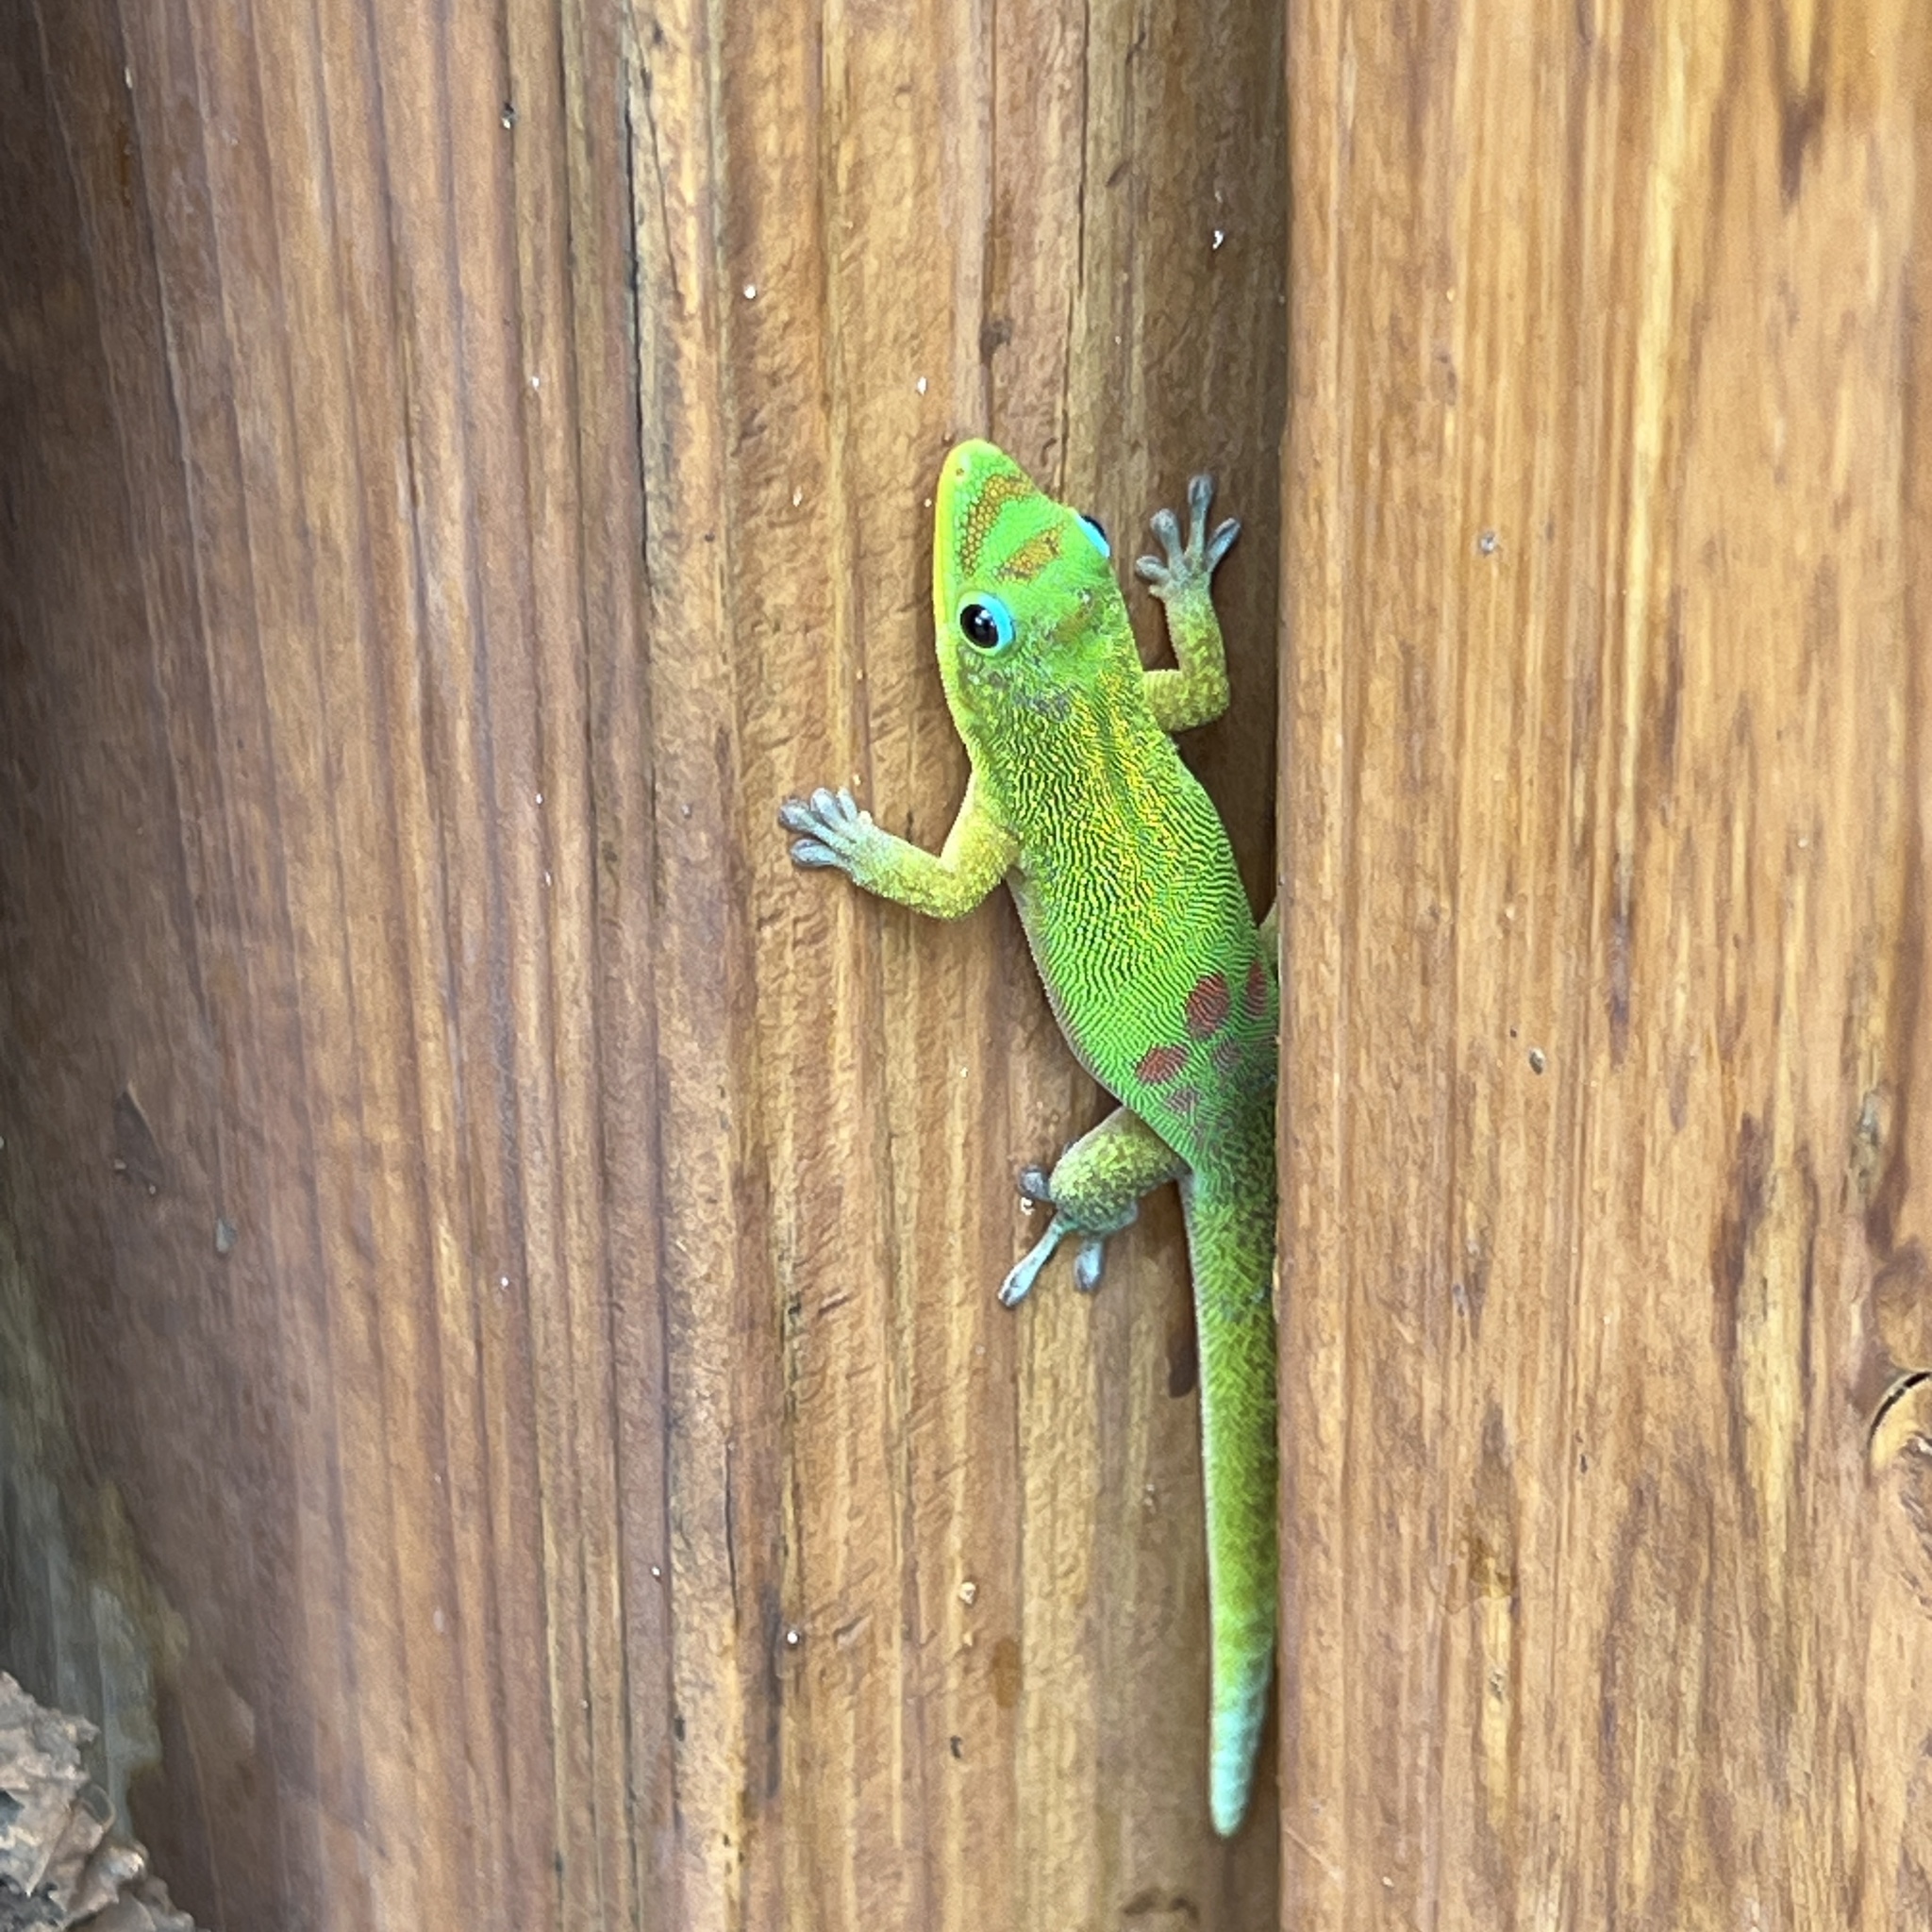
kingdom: Animalia
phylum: Chordata
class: Squamata
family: Gekkonidae
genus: Phelsuma
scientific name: Phelsuma laticauda
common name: Gold dust day gecko
